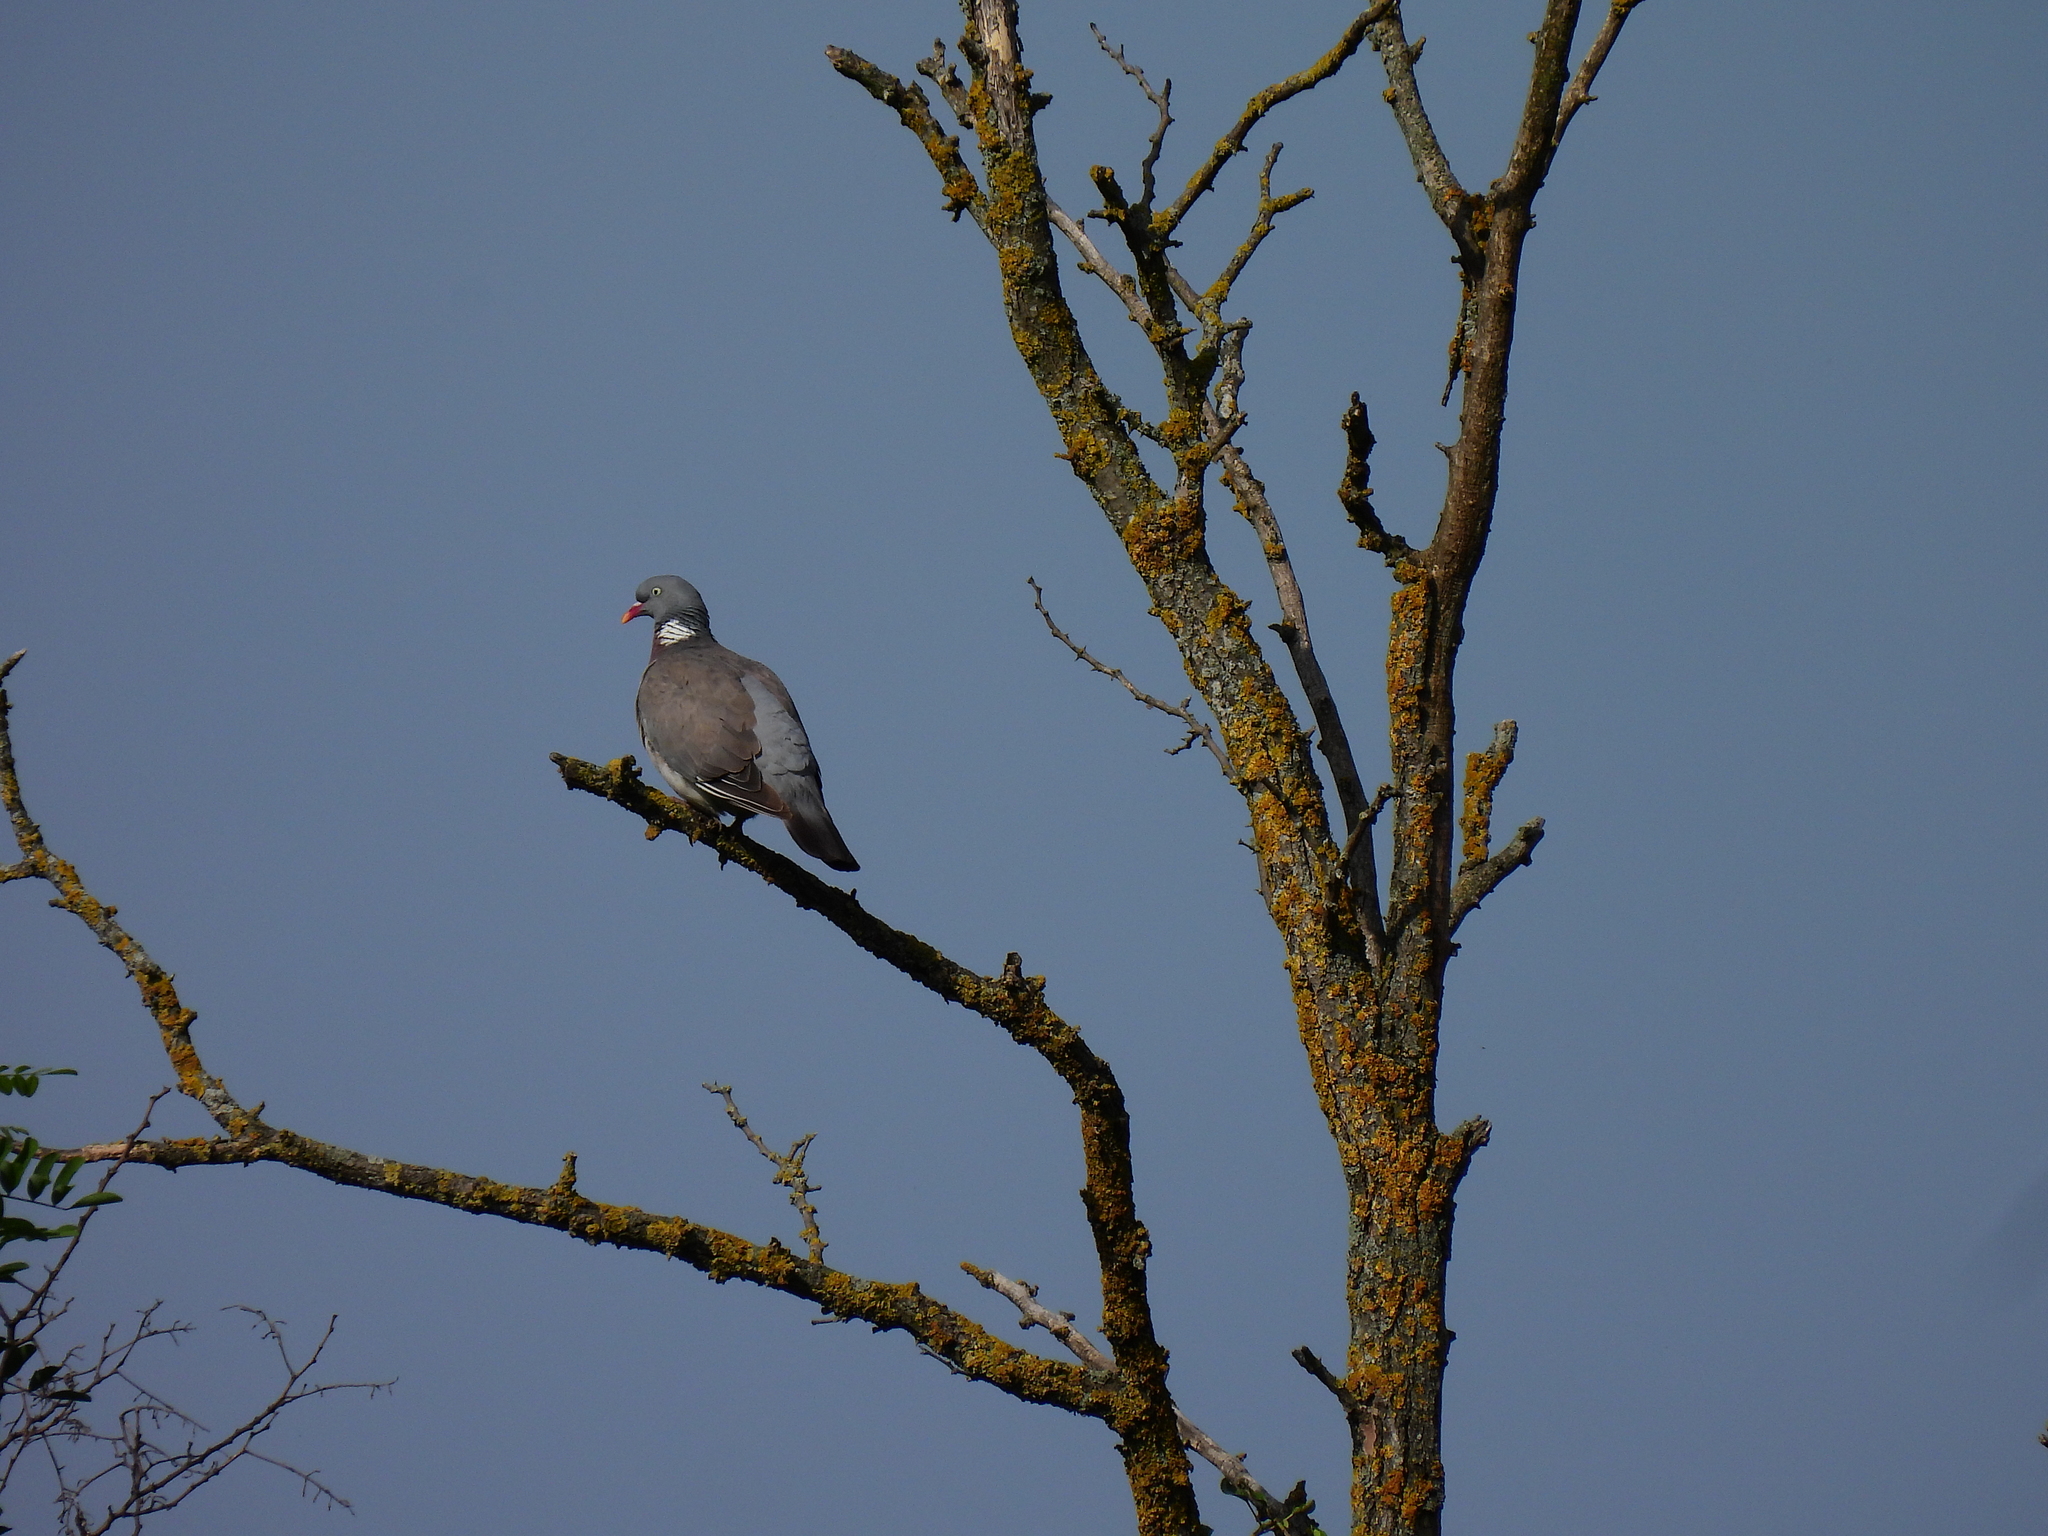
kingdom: Animalia
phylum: Chordata
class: Aves
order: Columbiformes
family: Columbidae
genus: Columba
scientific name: Columba palumbus
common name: Common wood pigeon
